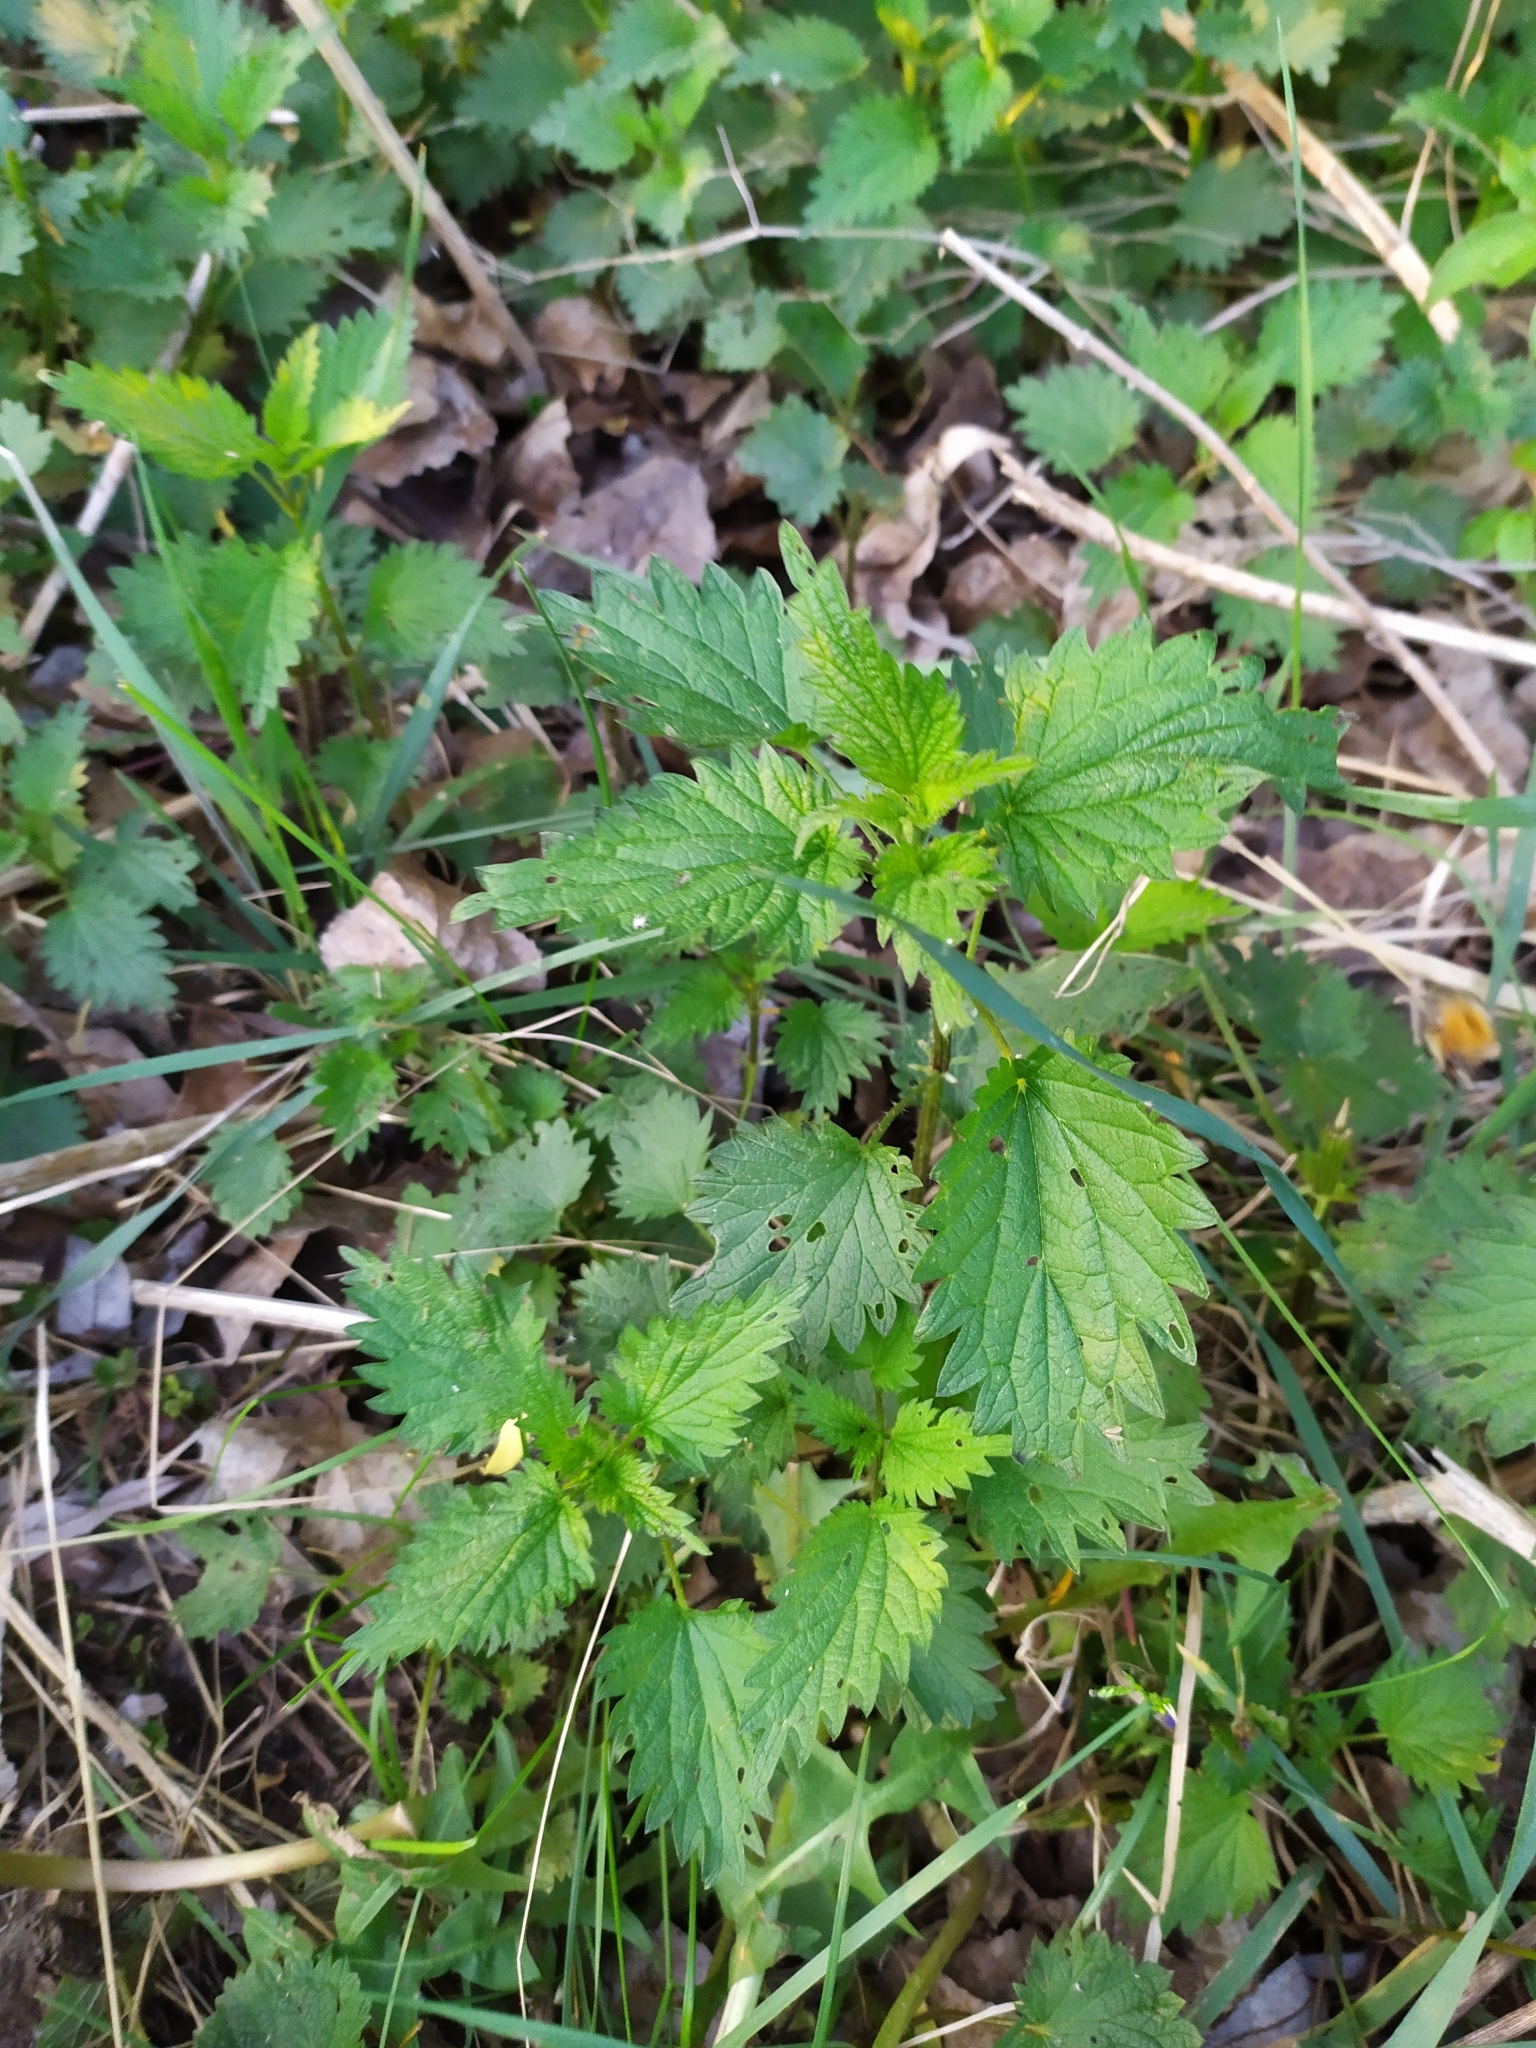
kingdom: Plantae
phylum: Tracheophyta
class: Magnoliopsida
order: Rosales
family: Urticaceae
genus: Urtica
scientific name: Urtica dioica
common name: Common nettle
